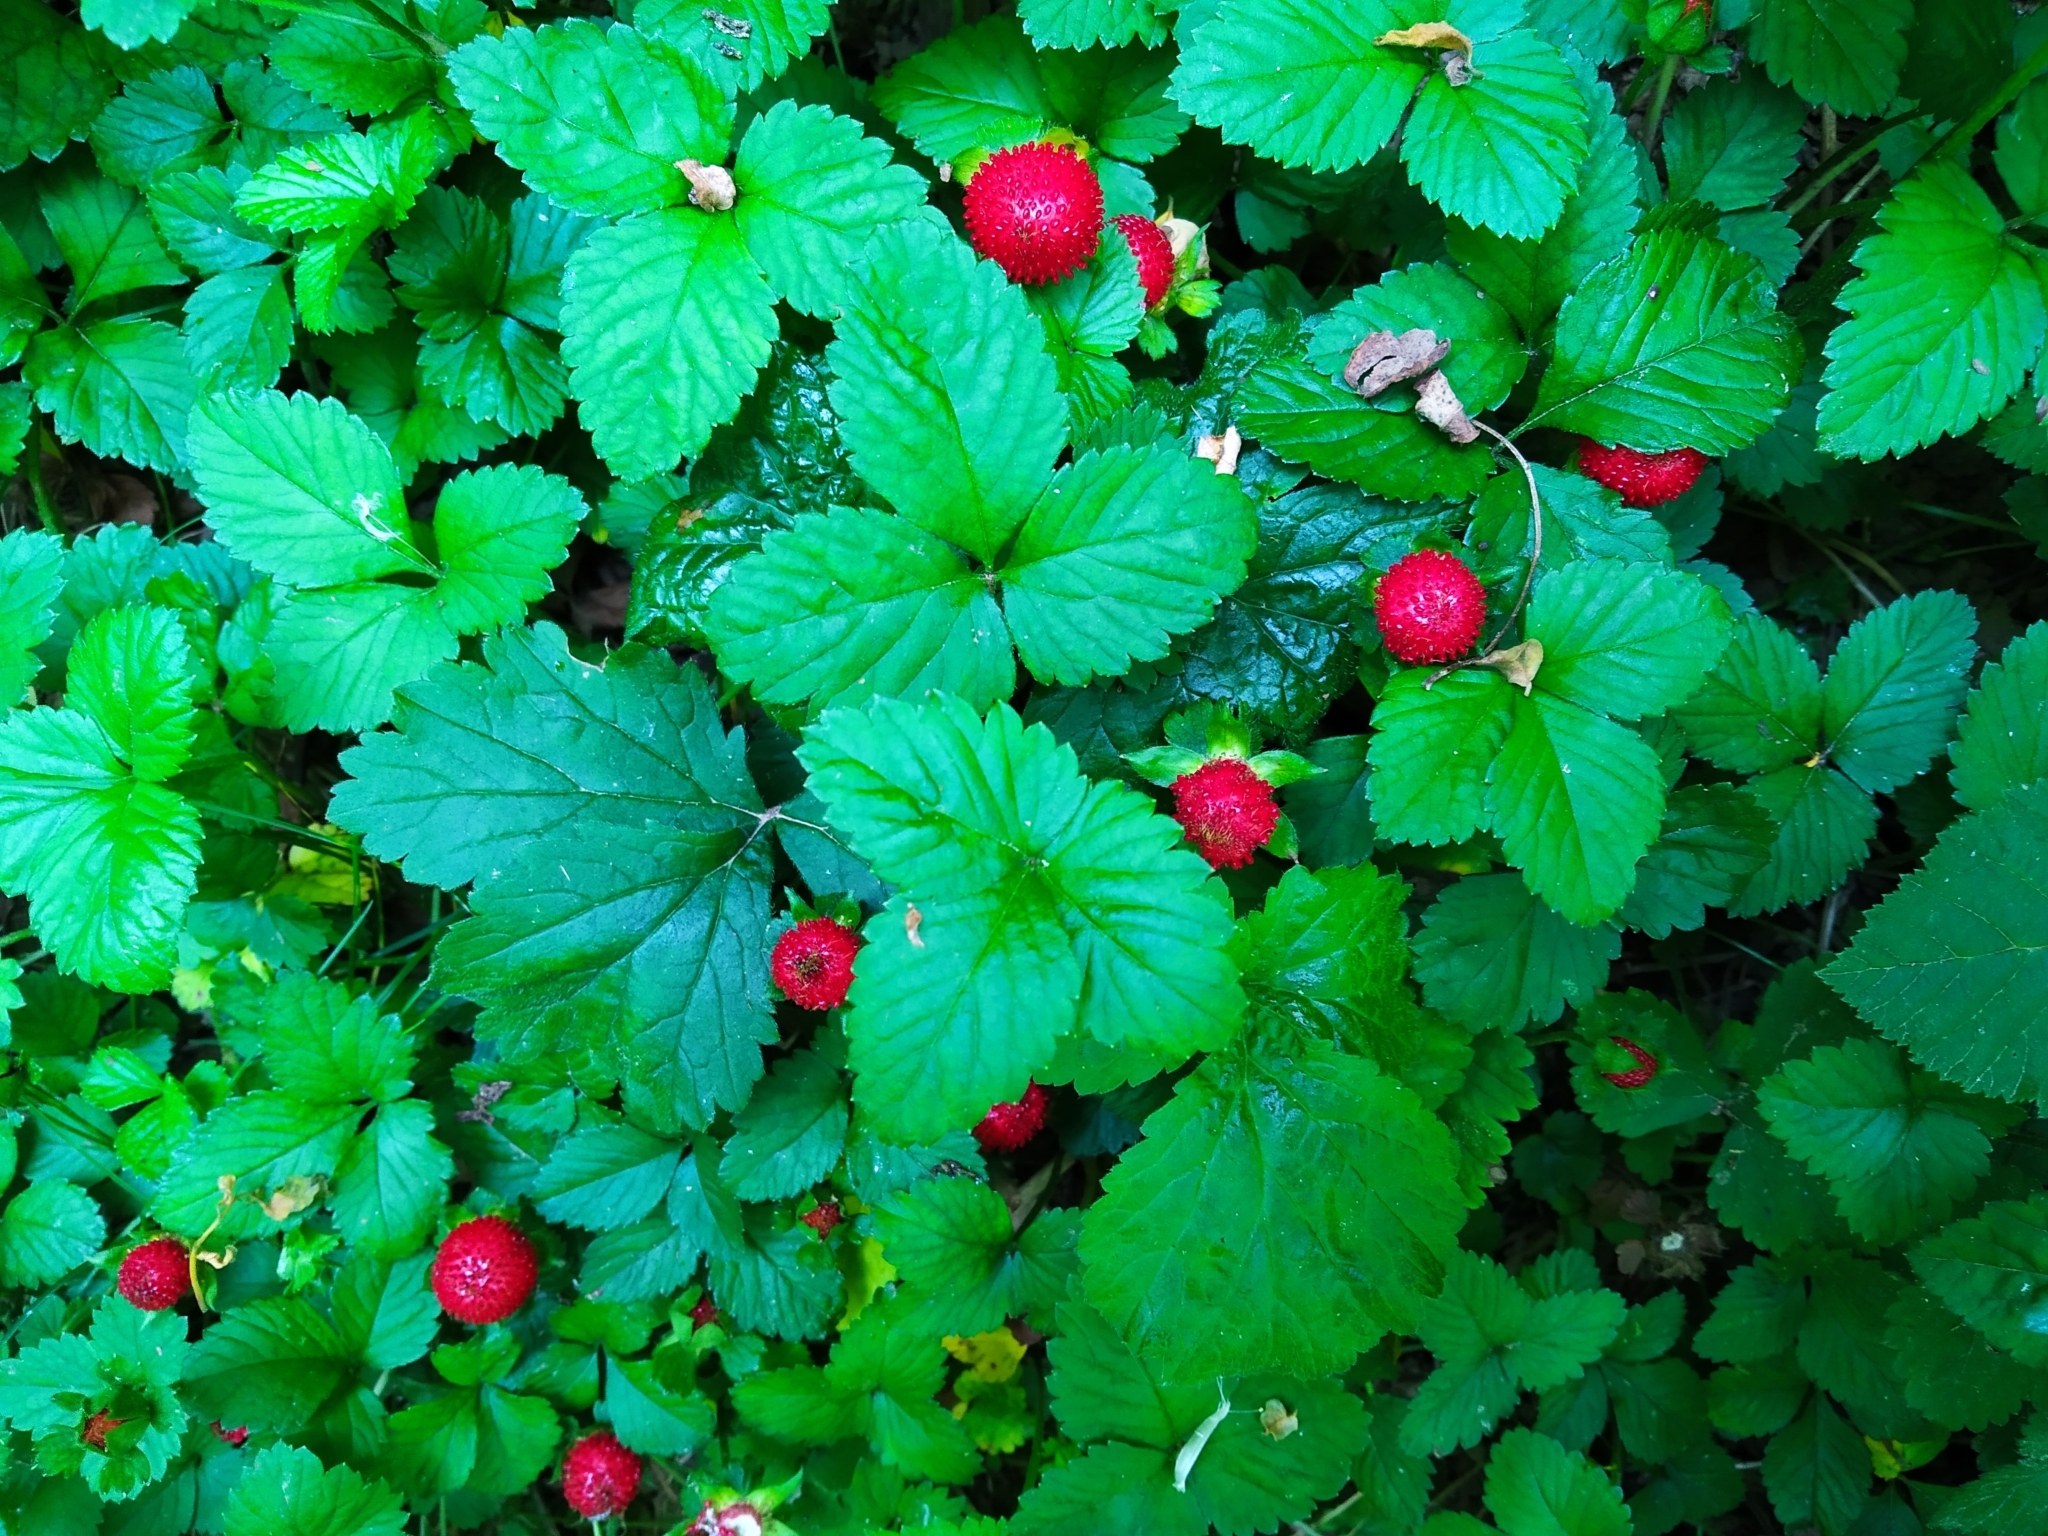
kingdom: Plantae
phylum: Tracheophyta
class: Magnoliopsida
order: Rosales
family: Rosaceae
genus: Potentilla
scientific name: Potentilla indica
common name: Yellow-flowered strawberry
